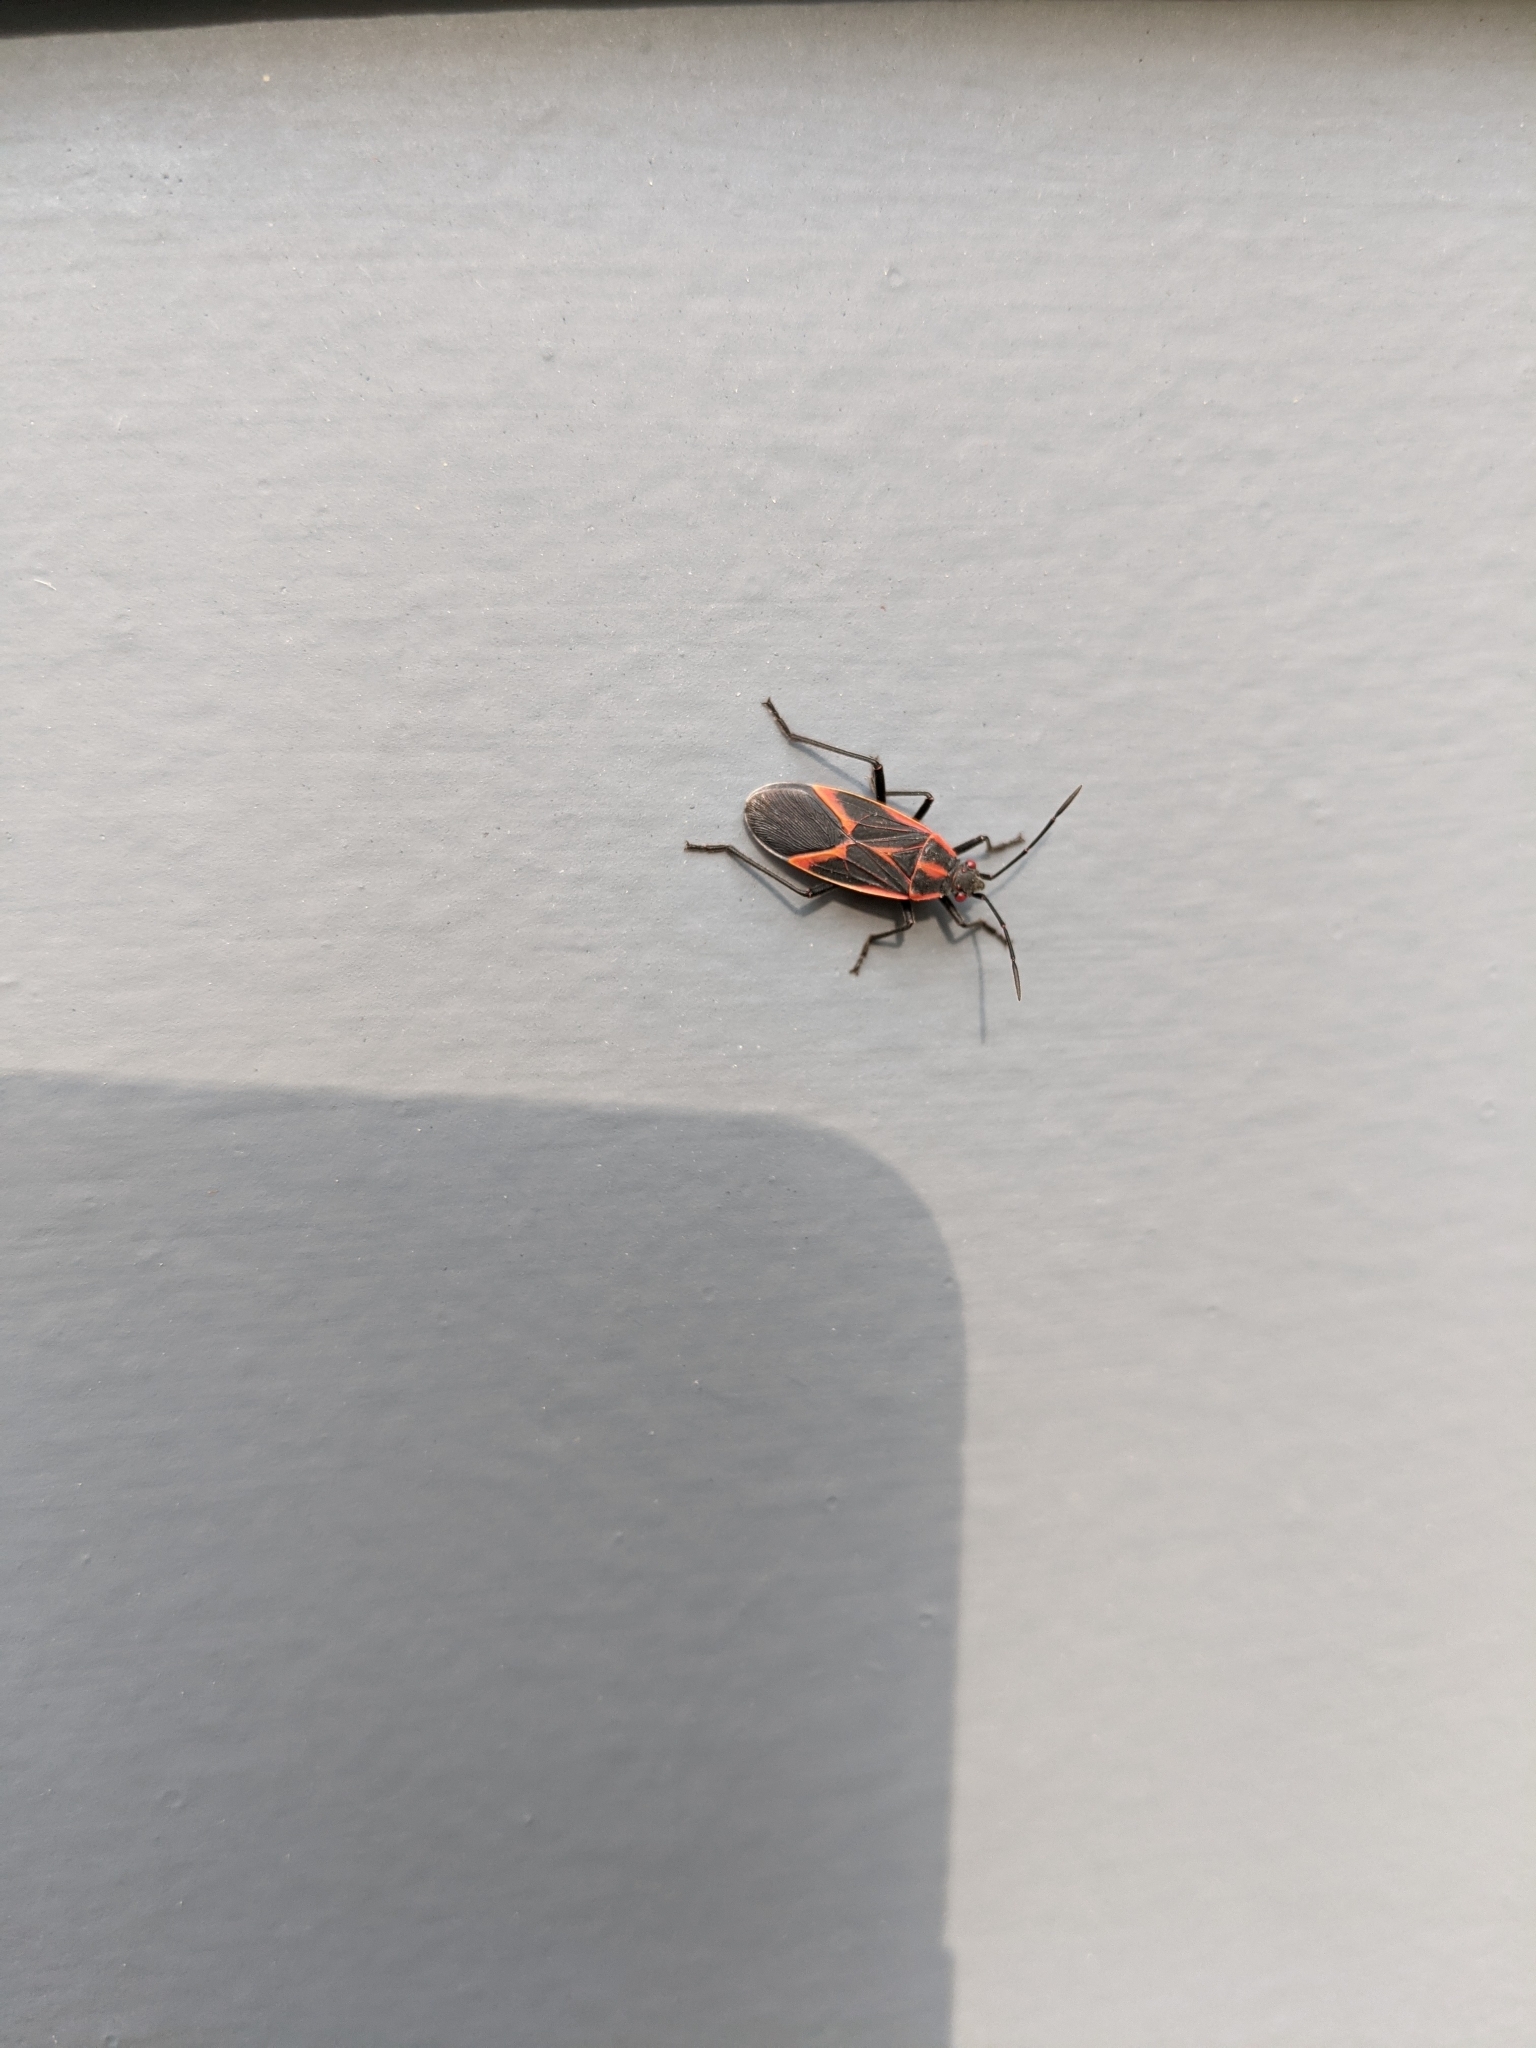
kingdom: Animalia
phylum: Arthropoda
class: Insecta
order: Hemiptera
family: Rhopalidae
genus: Boisea
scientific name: Boisea trivittata
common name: Boxelder bug
